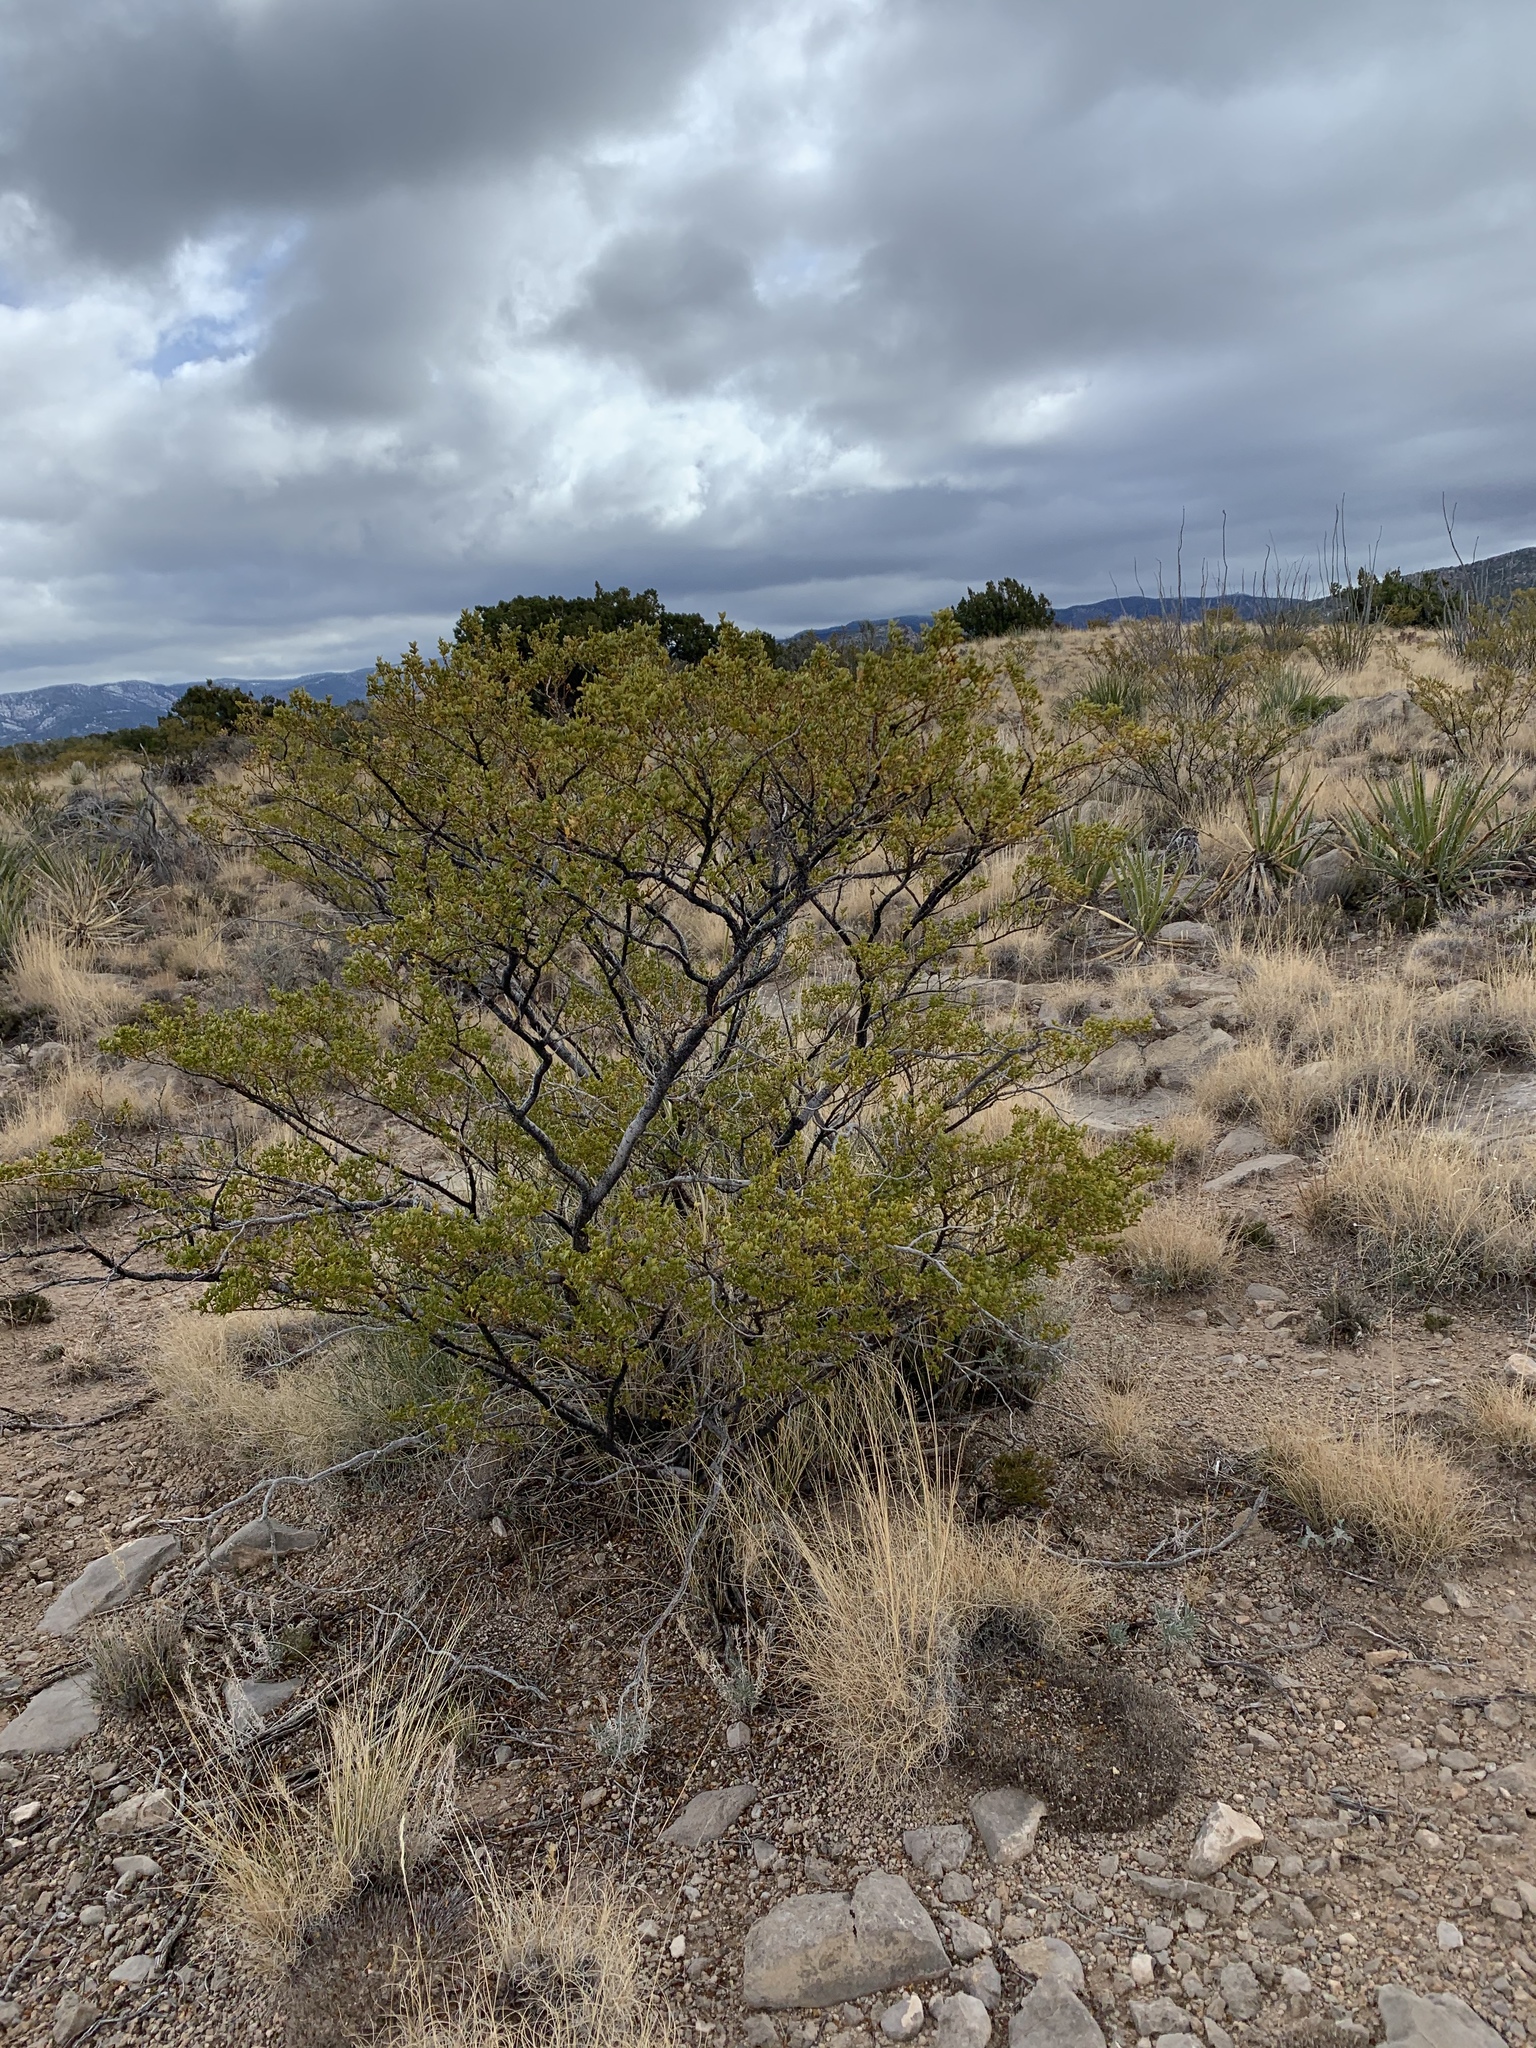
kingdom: Plantae
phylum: Tracheophyta
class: Magnoliopsida
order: Zygophyllales
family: Zygophyllaceae
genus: Larrea
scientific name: Larrea tridentata
